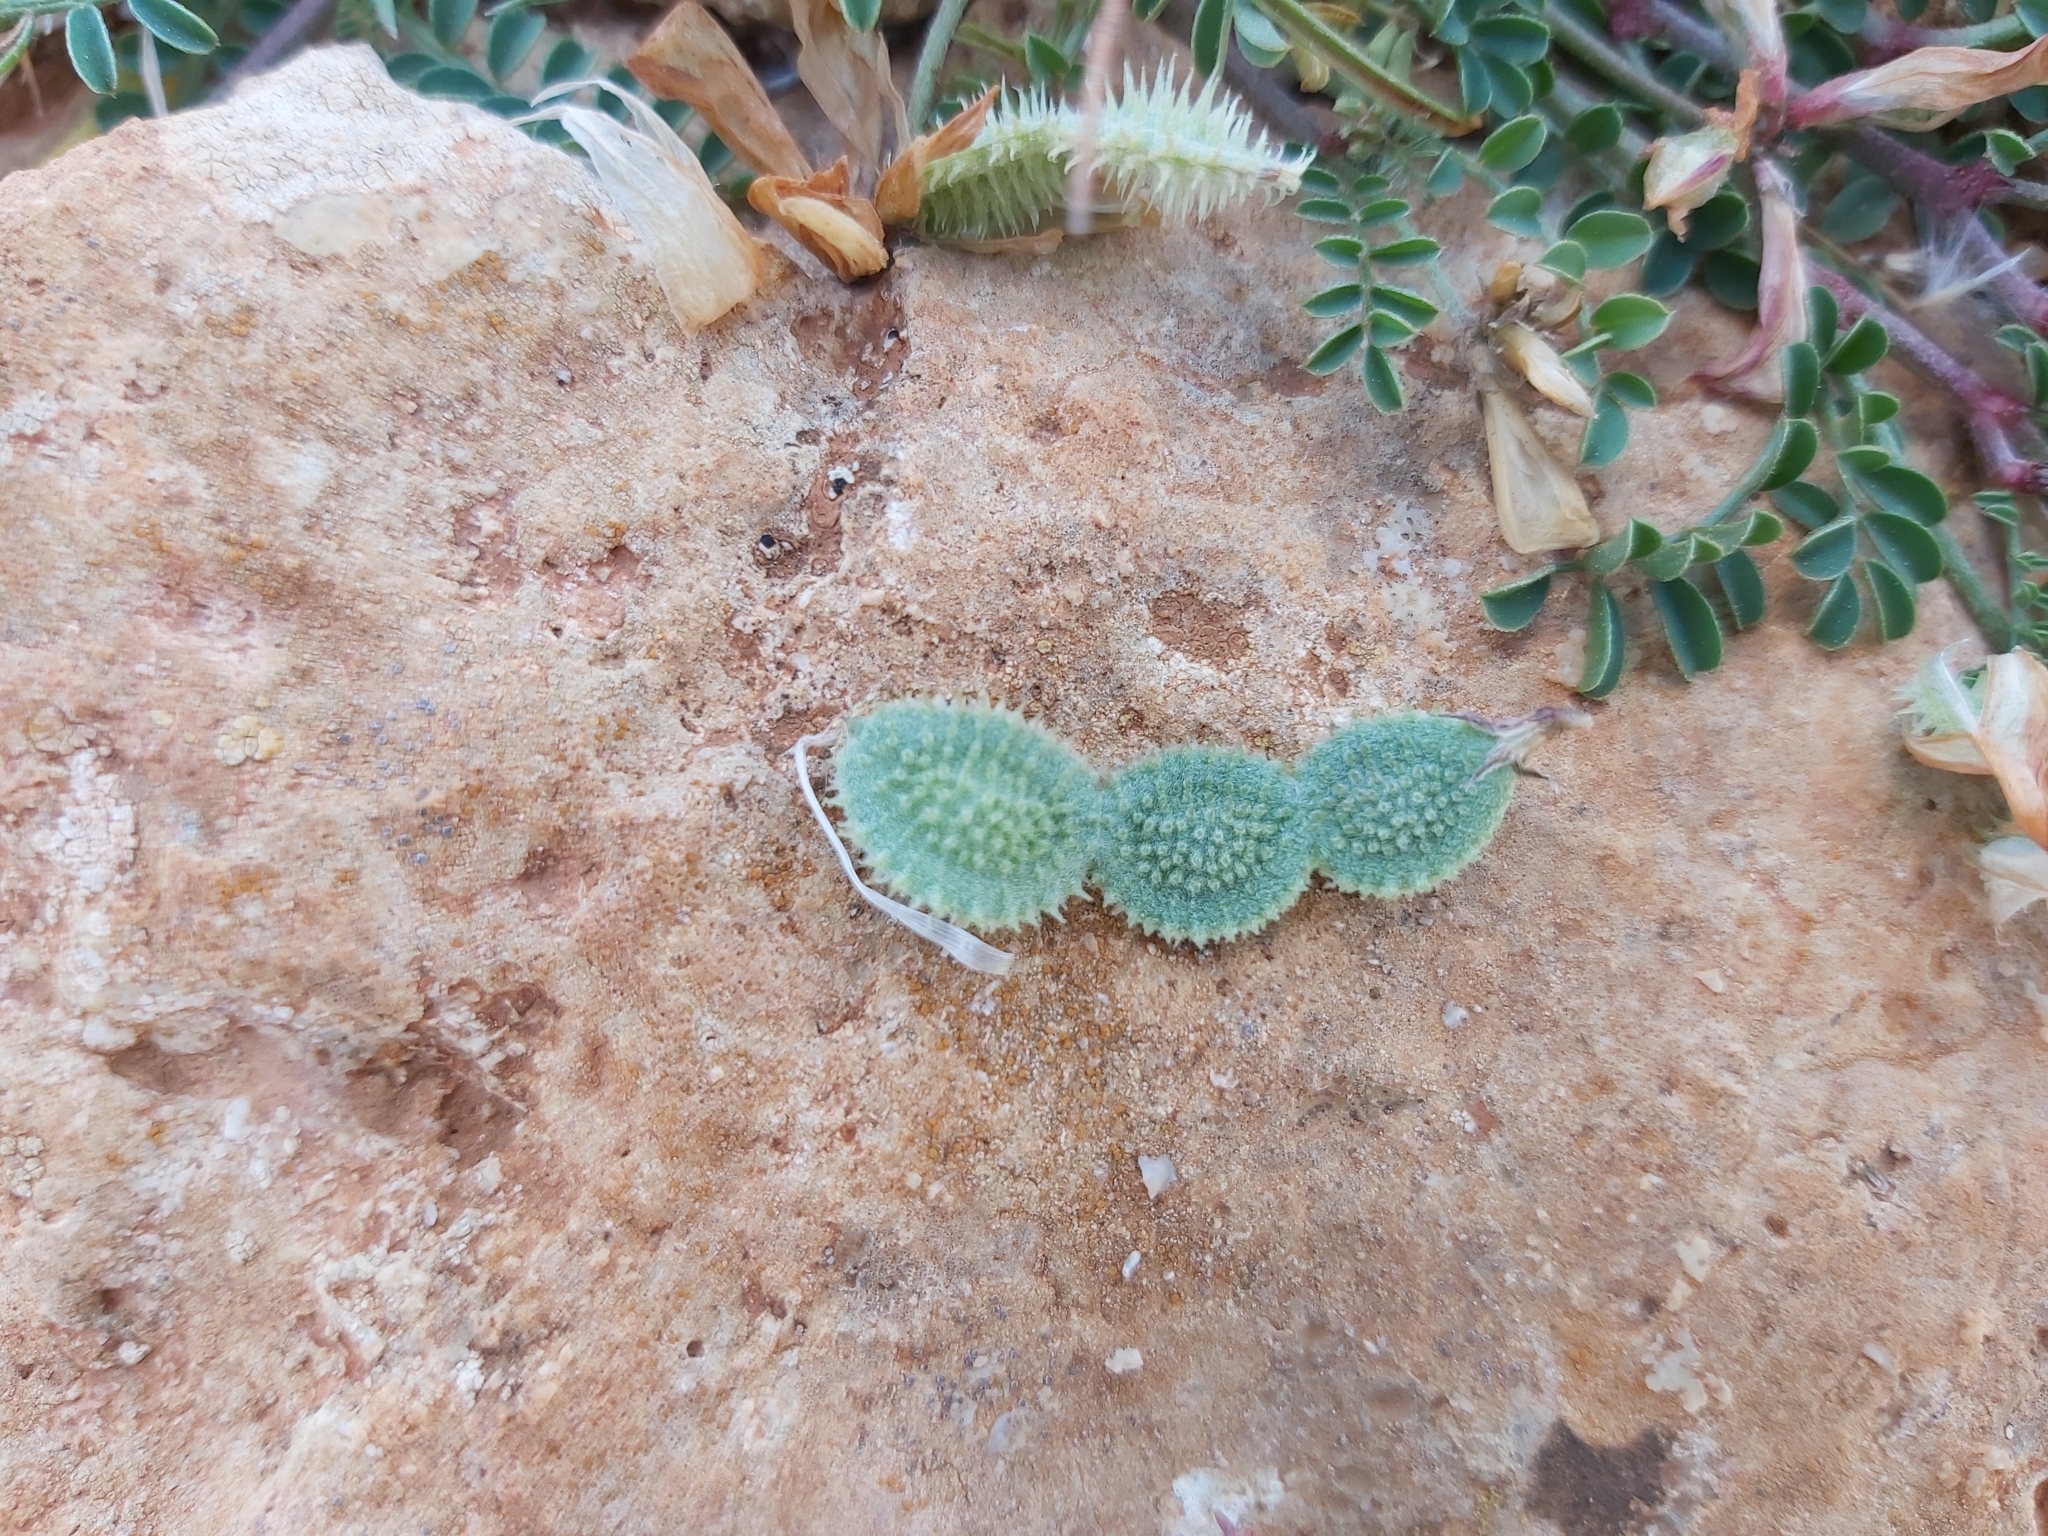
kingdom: Plantae
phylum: Tracheophyta
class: Magnoliopsida
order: Fabales
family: Fabaceae
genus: Sulla
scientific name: Sulla glomerata
